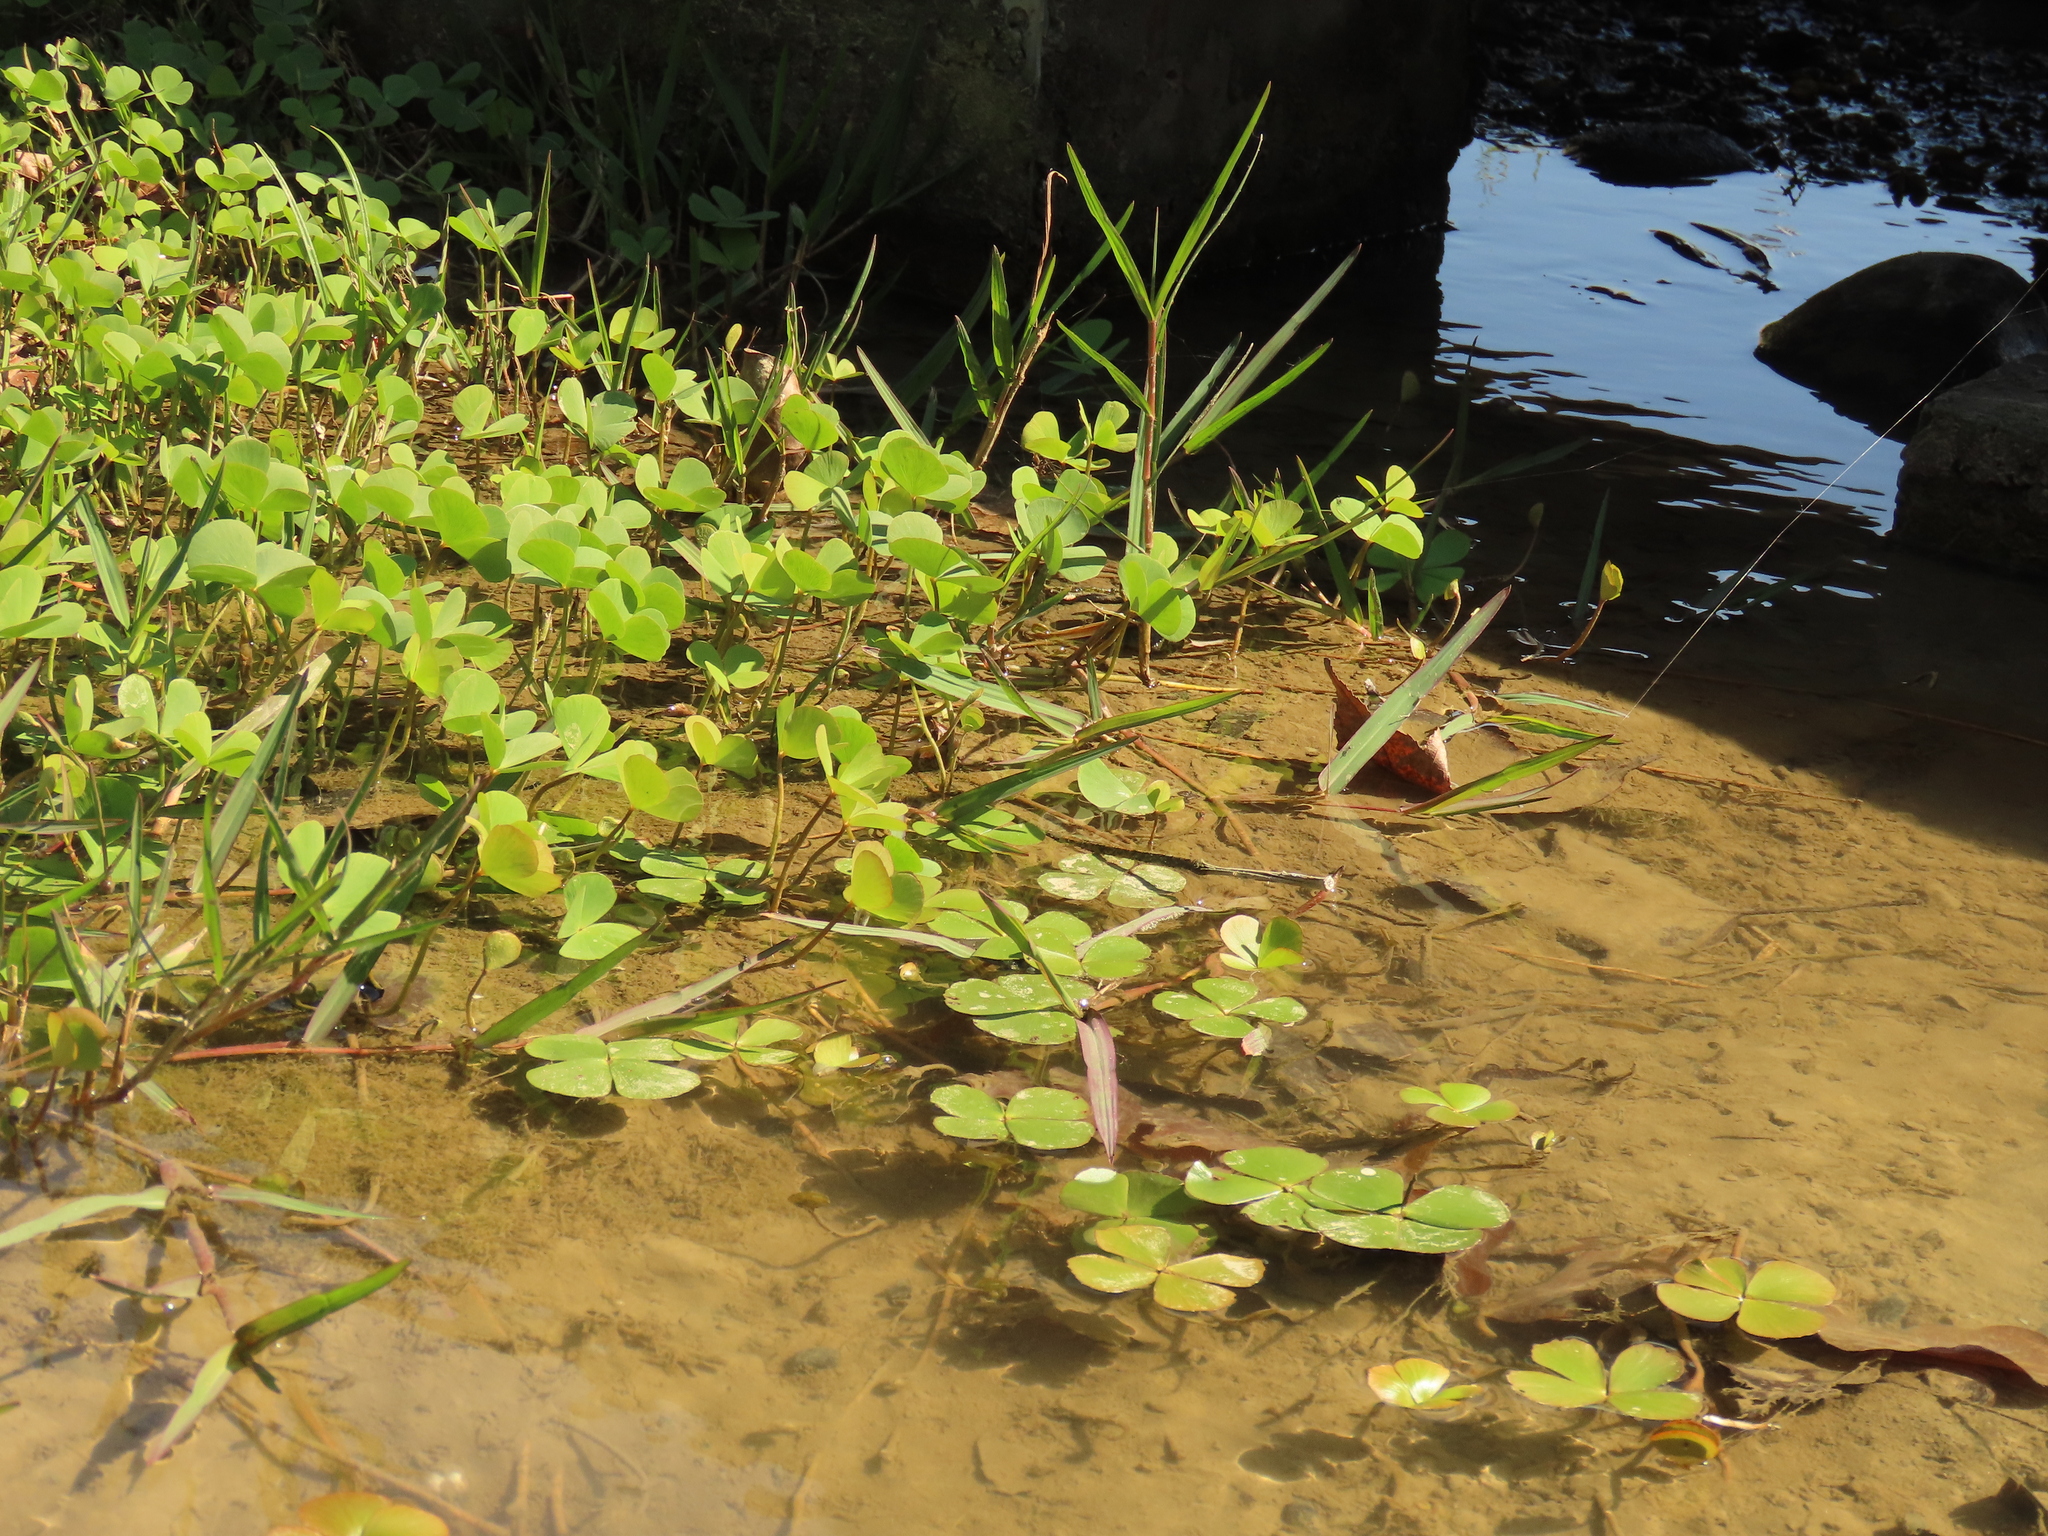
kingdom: Plantae
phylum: Tracheophyta
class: Polypodiopsida
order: Salviniales
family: Marsileaceae
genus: Marsilea
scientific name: Marsilea minuta
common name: Dwarf waterclover
